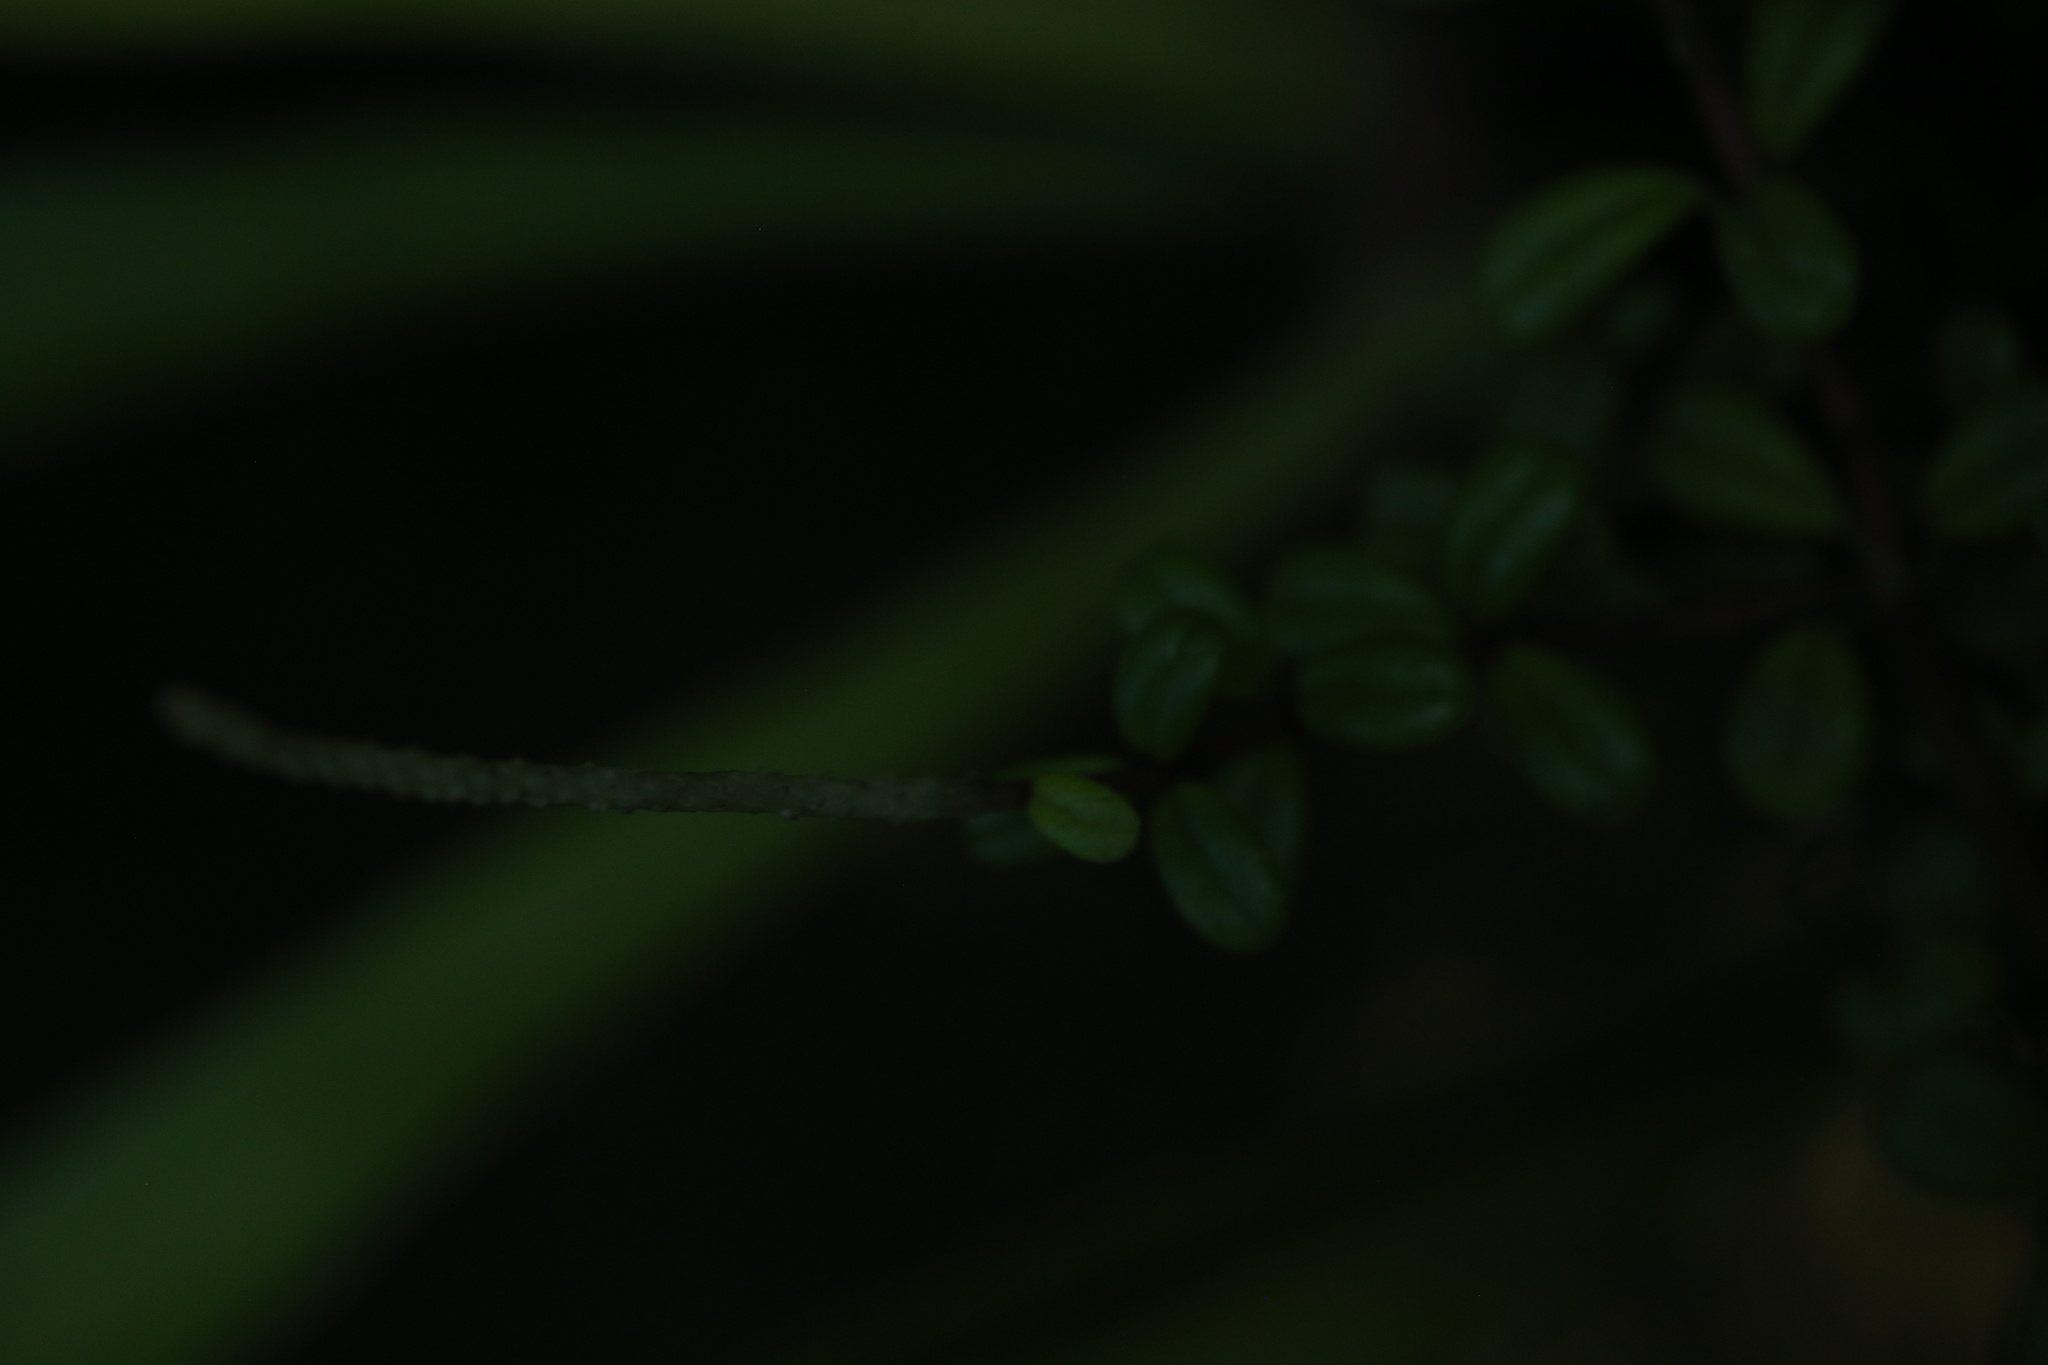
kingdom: Plantae
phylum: Tracheophyta
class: Magnoliopsida
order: Piperales
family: Piperaceae
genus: Peperomia
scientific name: Peperomia enervis
